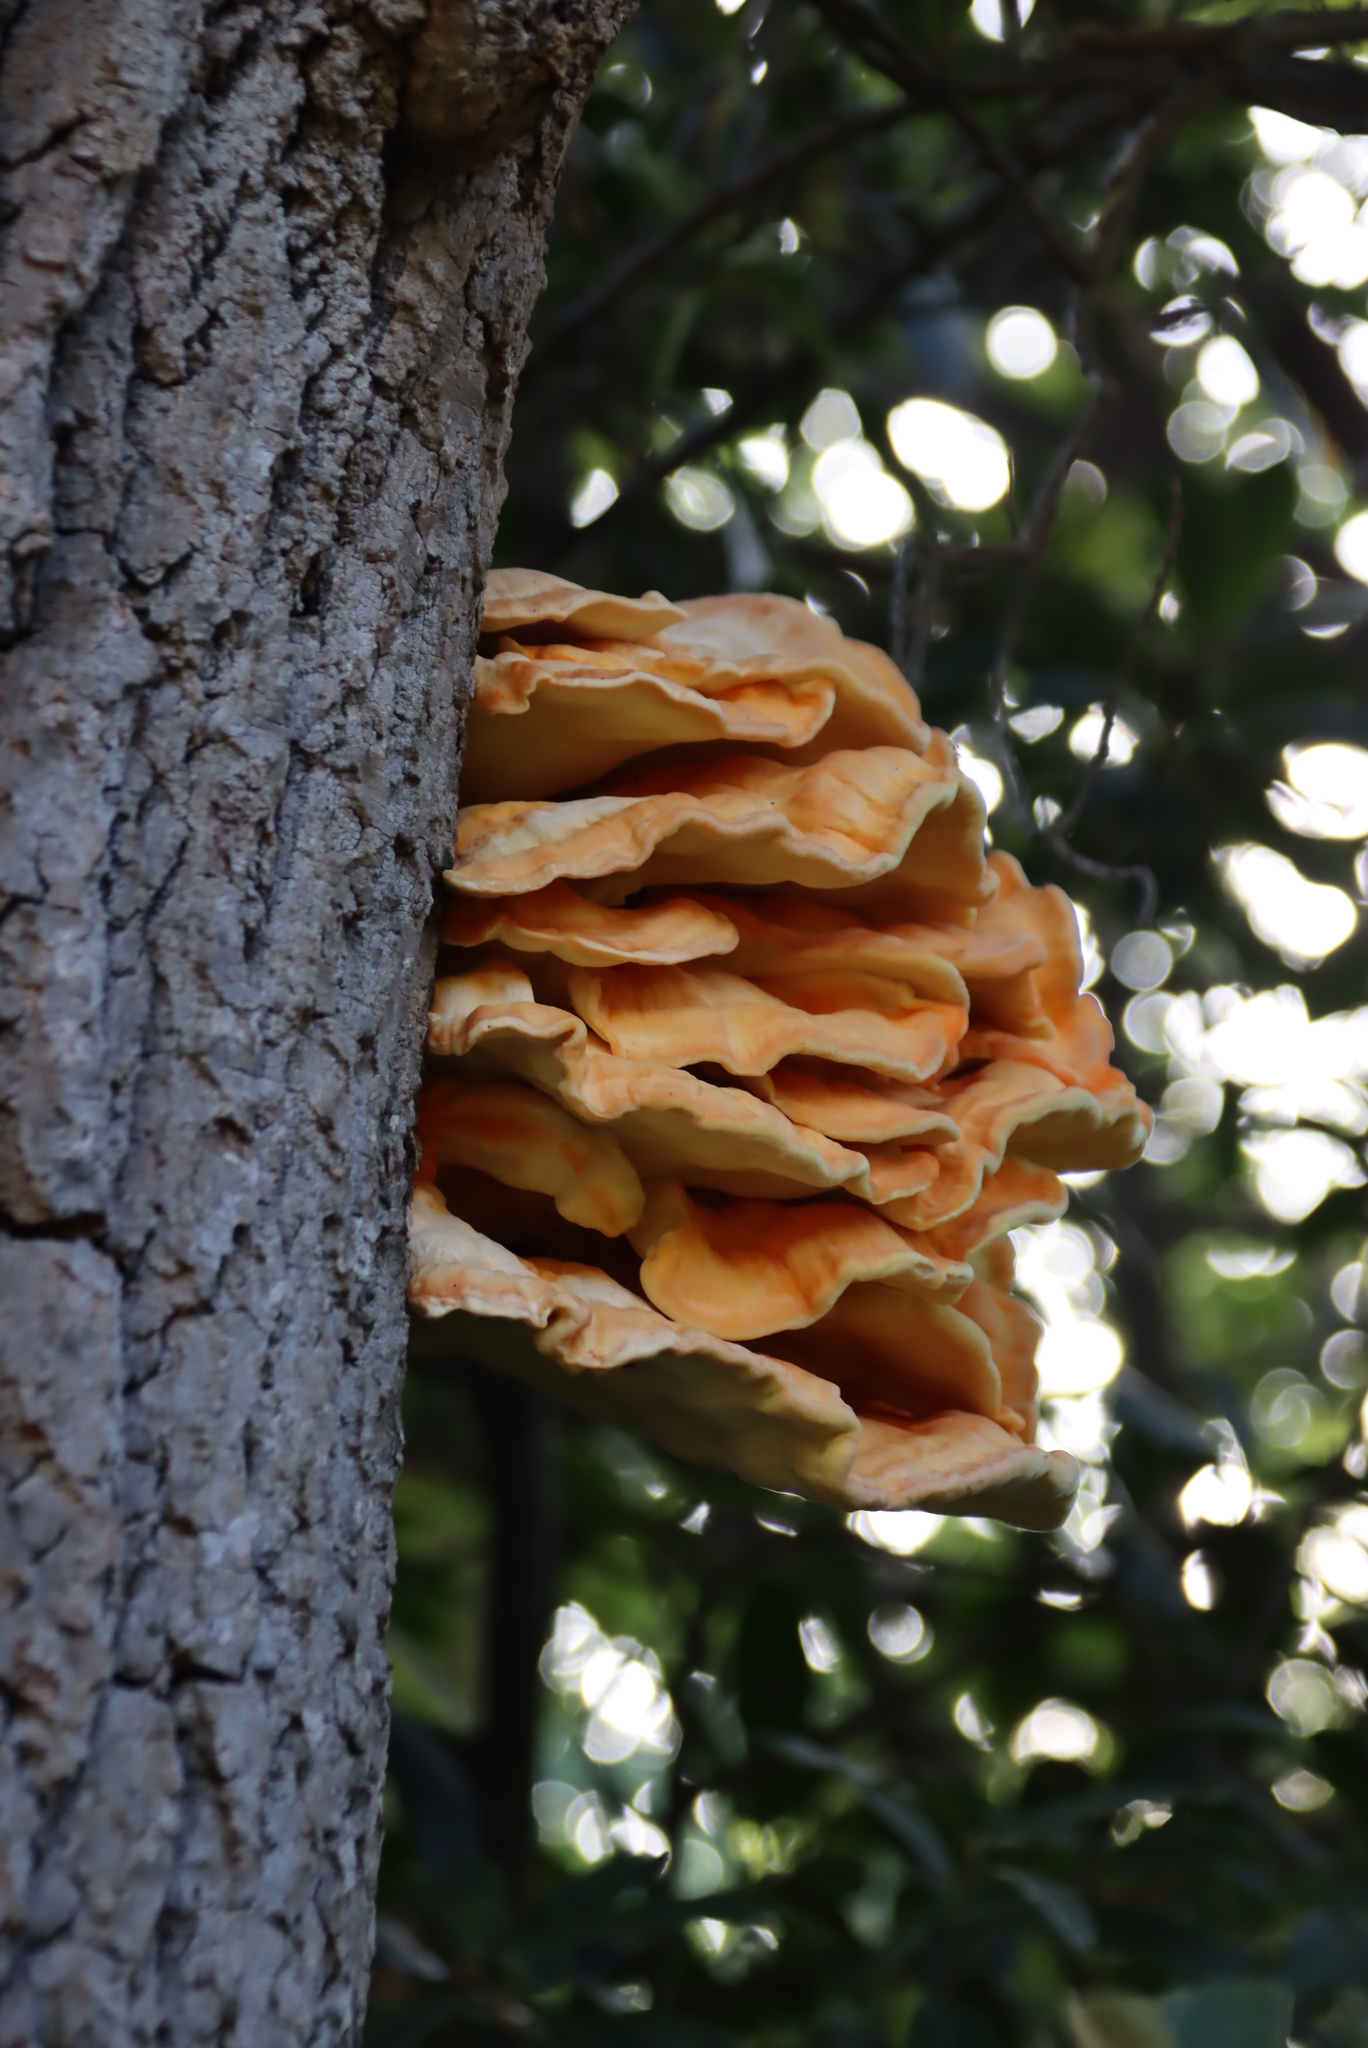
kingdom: Fungi
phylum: Basidiomycota
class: Agaricomycetes
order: Polyporales
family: Laetiporaceae
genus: Laetiporus
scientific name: Laetiporus sulphureus
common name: Chicken of the woods
